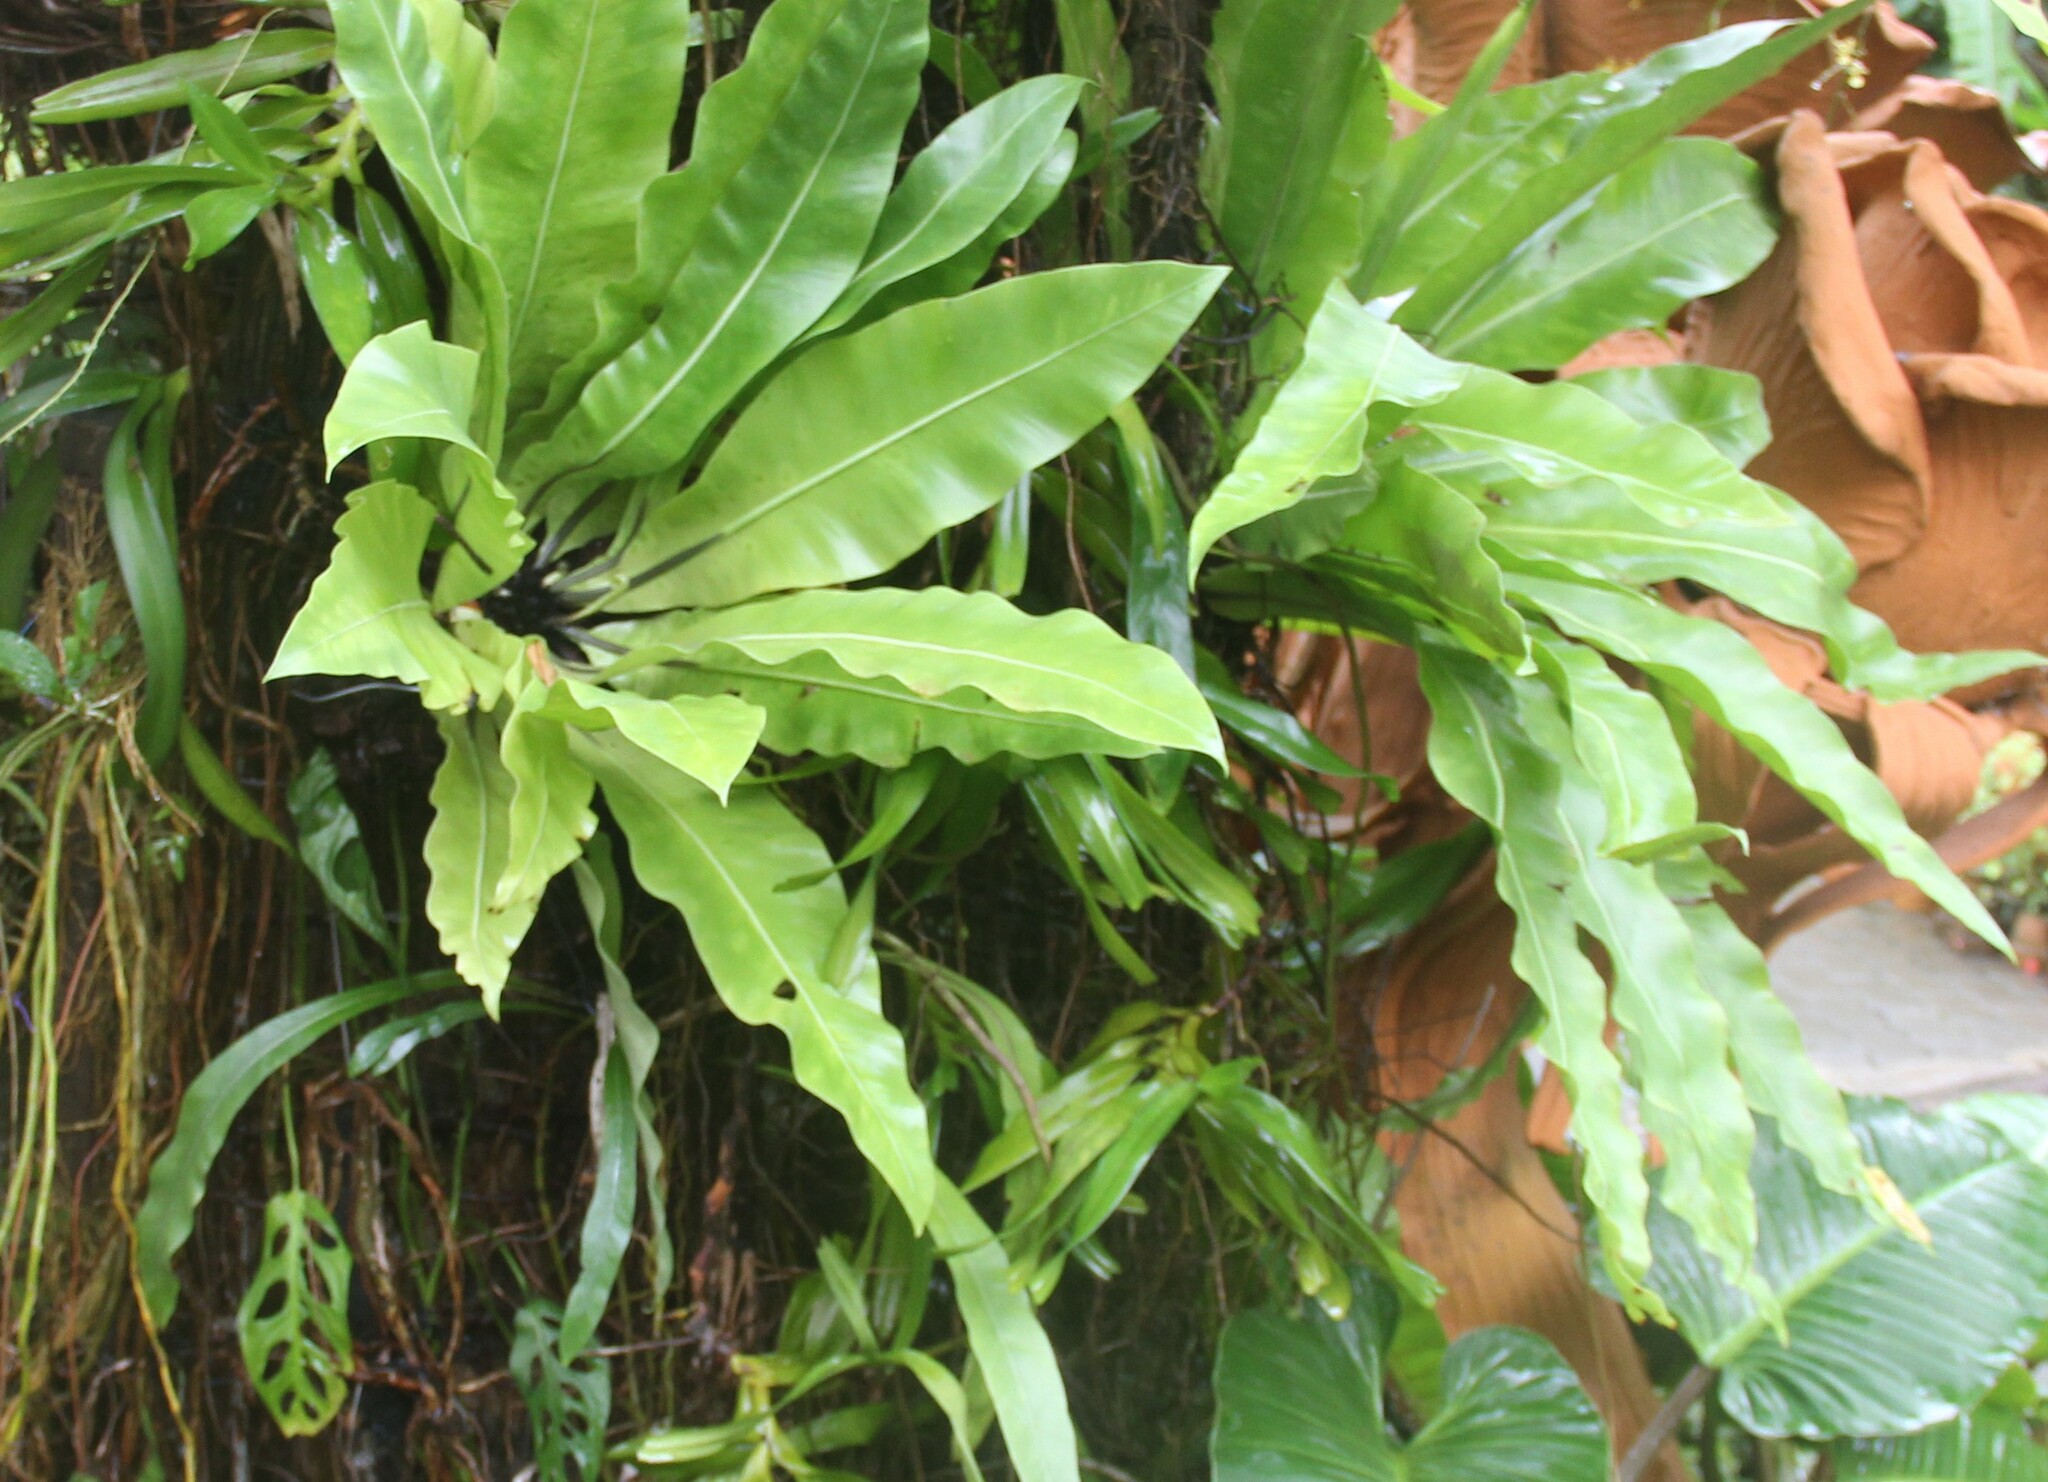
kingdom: Plantae
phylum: Tracheophyta
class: Polypodiopsida
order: Polypodiales
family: Aspleniaceae
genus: Asplenium
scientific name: Asplenium nidus
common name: Bird's-nest fern
